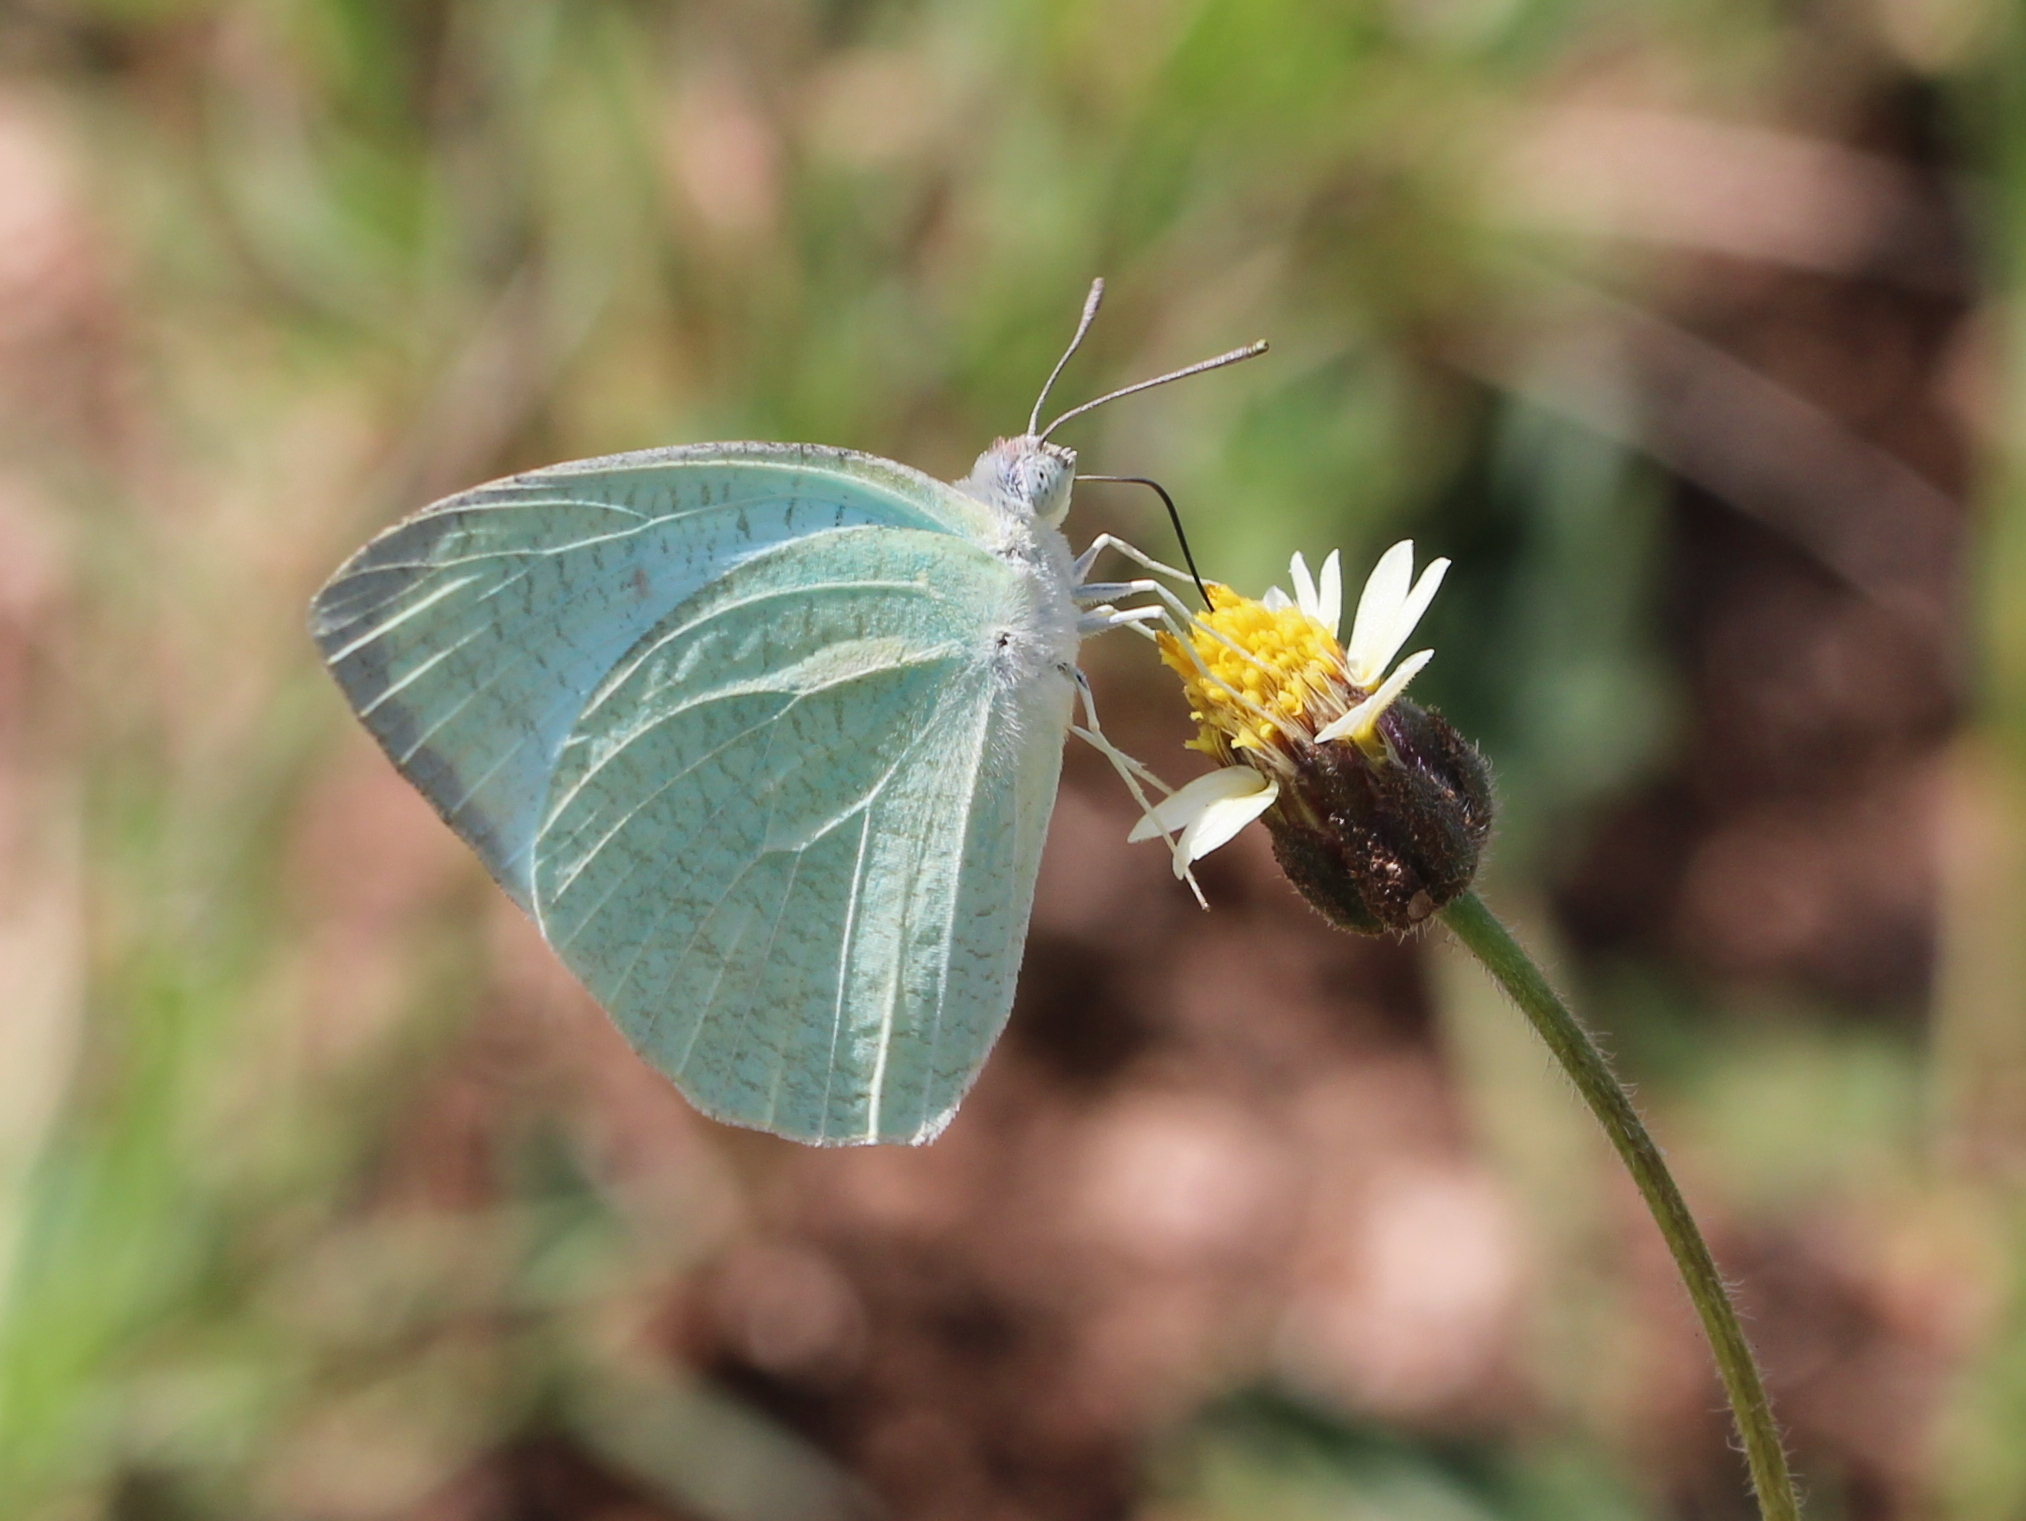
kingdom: Animalia
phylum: Arthropoda
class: Insecta
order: Lepidoptera
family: Pieridae
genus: Catopsilia
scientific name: Catopsilia pyranthe
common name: Mottled emigrant
